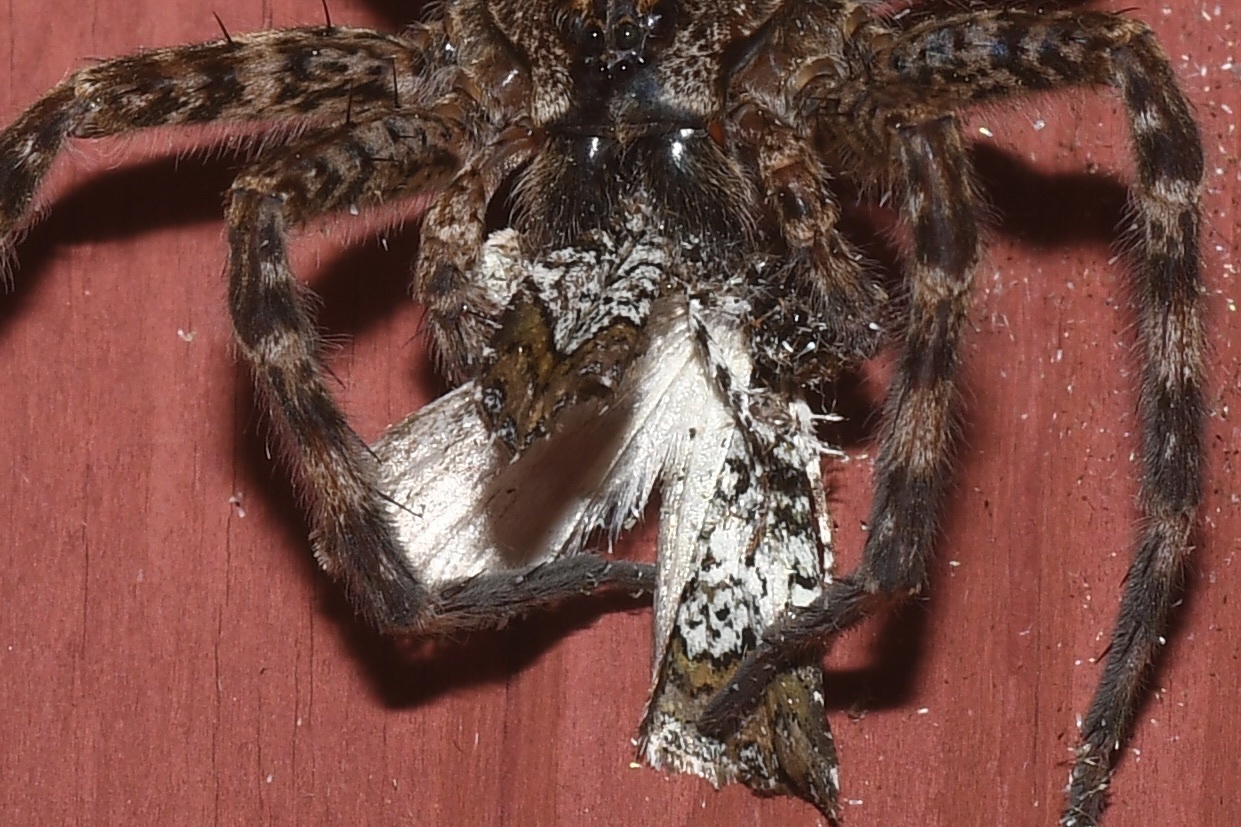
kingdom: Animalia
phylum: Arthropoda
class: Insecta
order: Lepidoptera
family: Noctuidae
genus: Cerma
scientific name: Cerma cora
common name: Bird dropping moth
